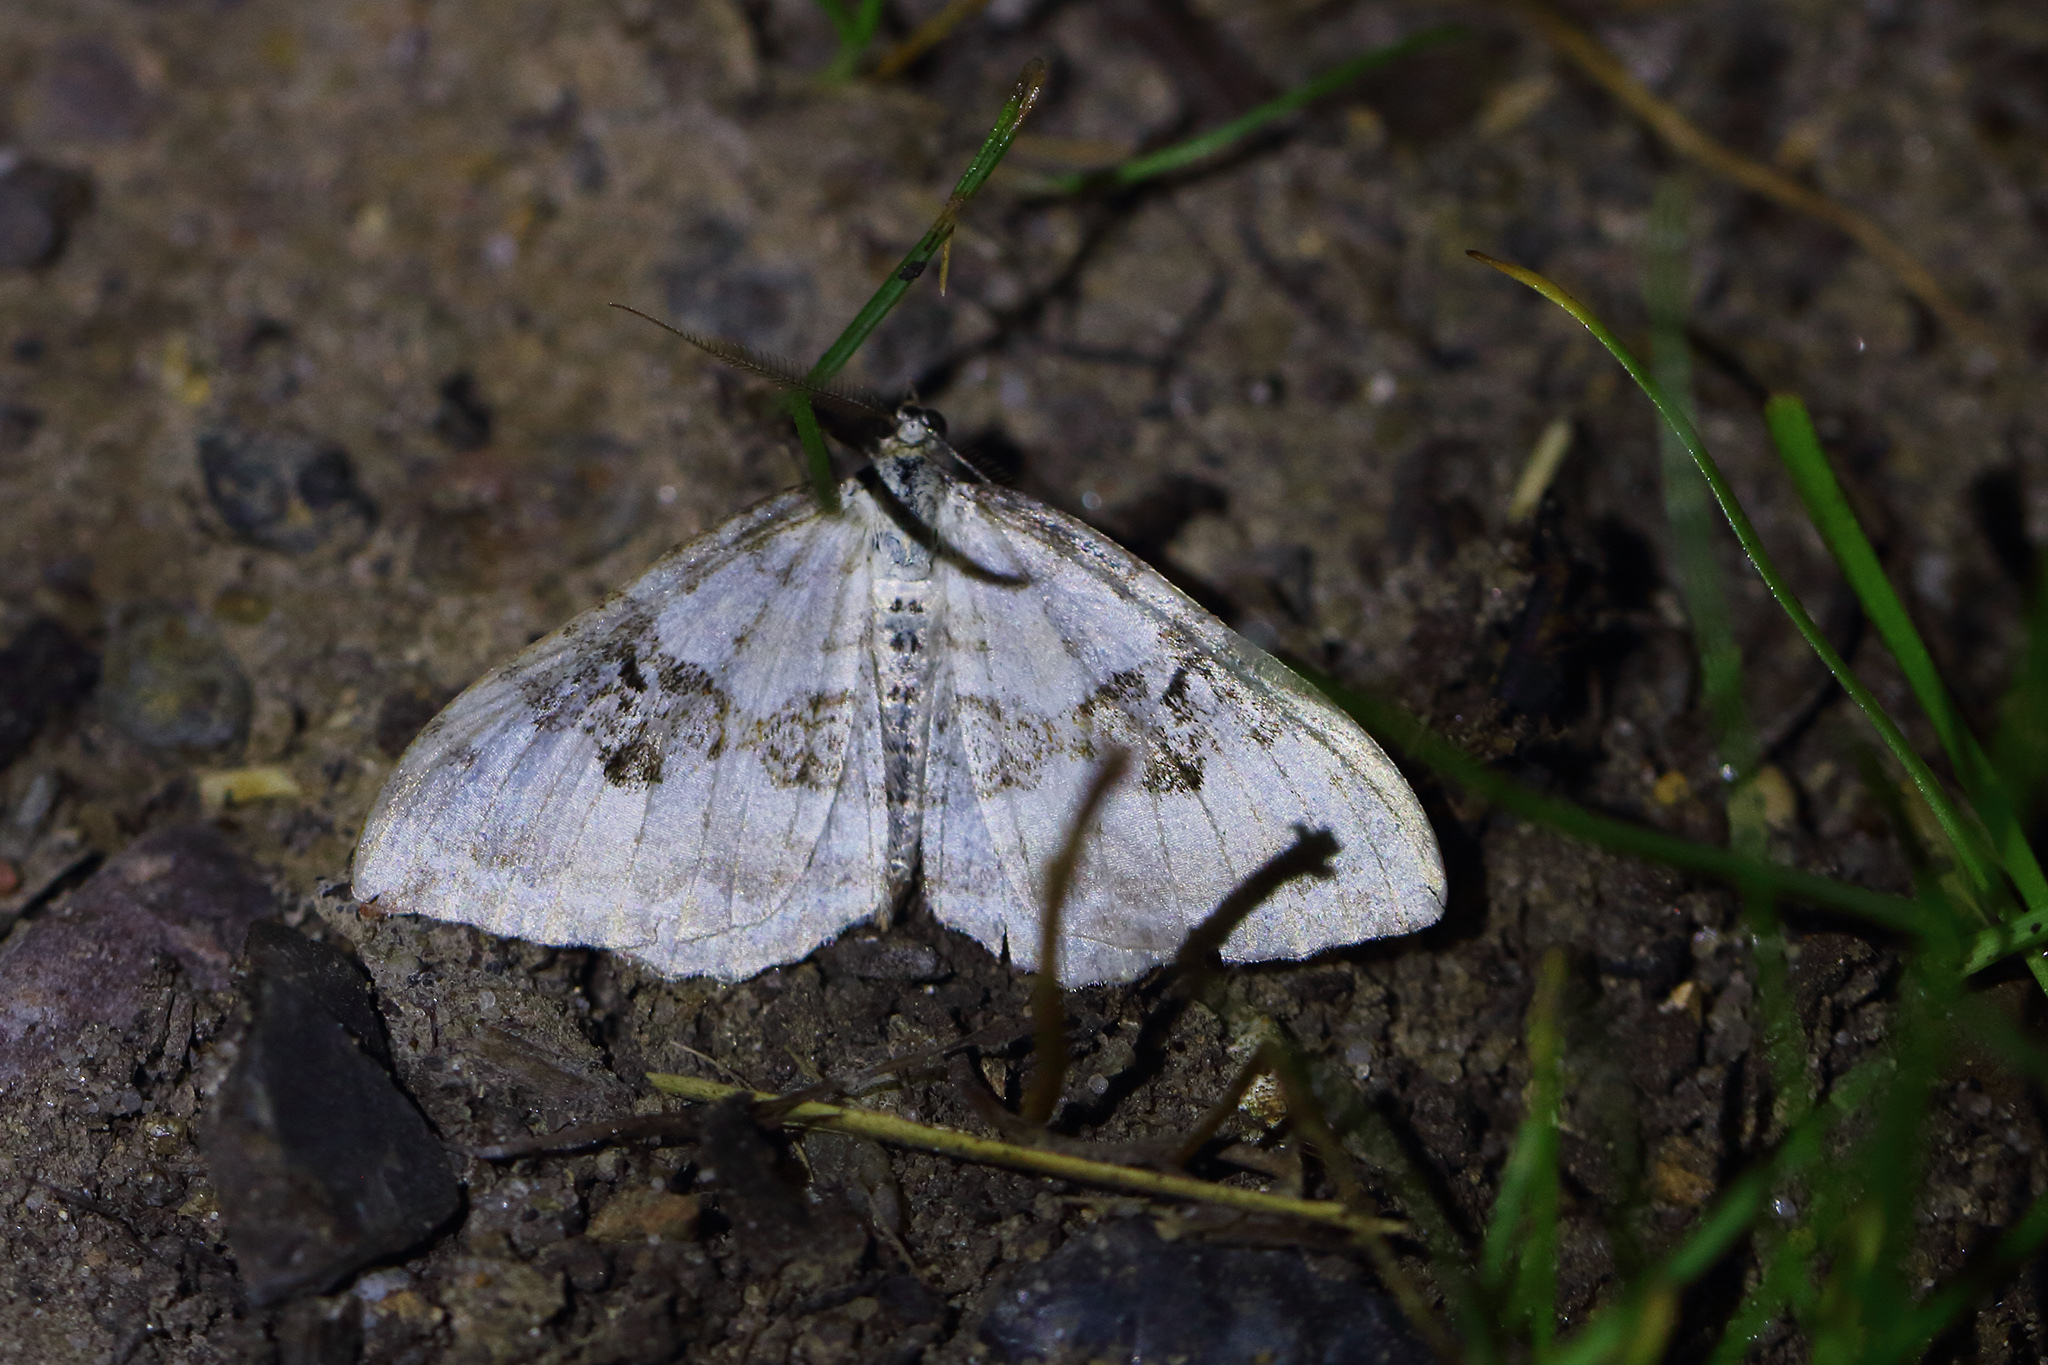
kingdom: Animalia
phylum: Arthropoda
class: Insecta
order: Lepidoptera
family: Geometridae
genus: Xanthorhoe
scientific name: Xanthorhoe montanata
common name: Silver-ground carpet
